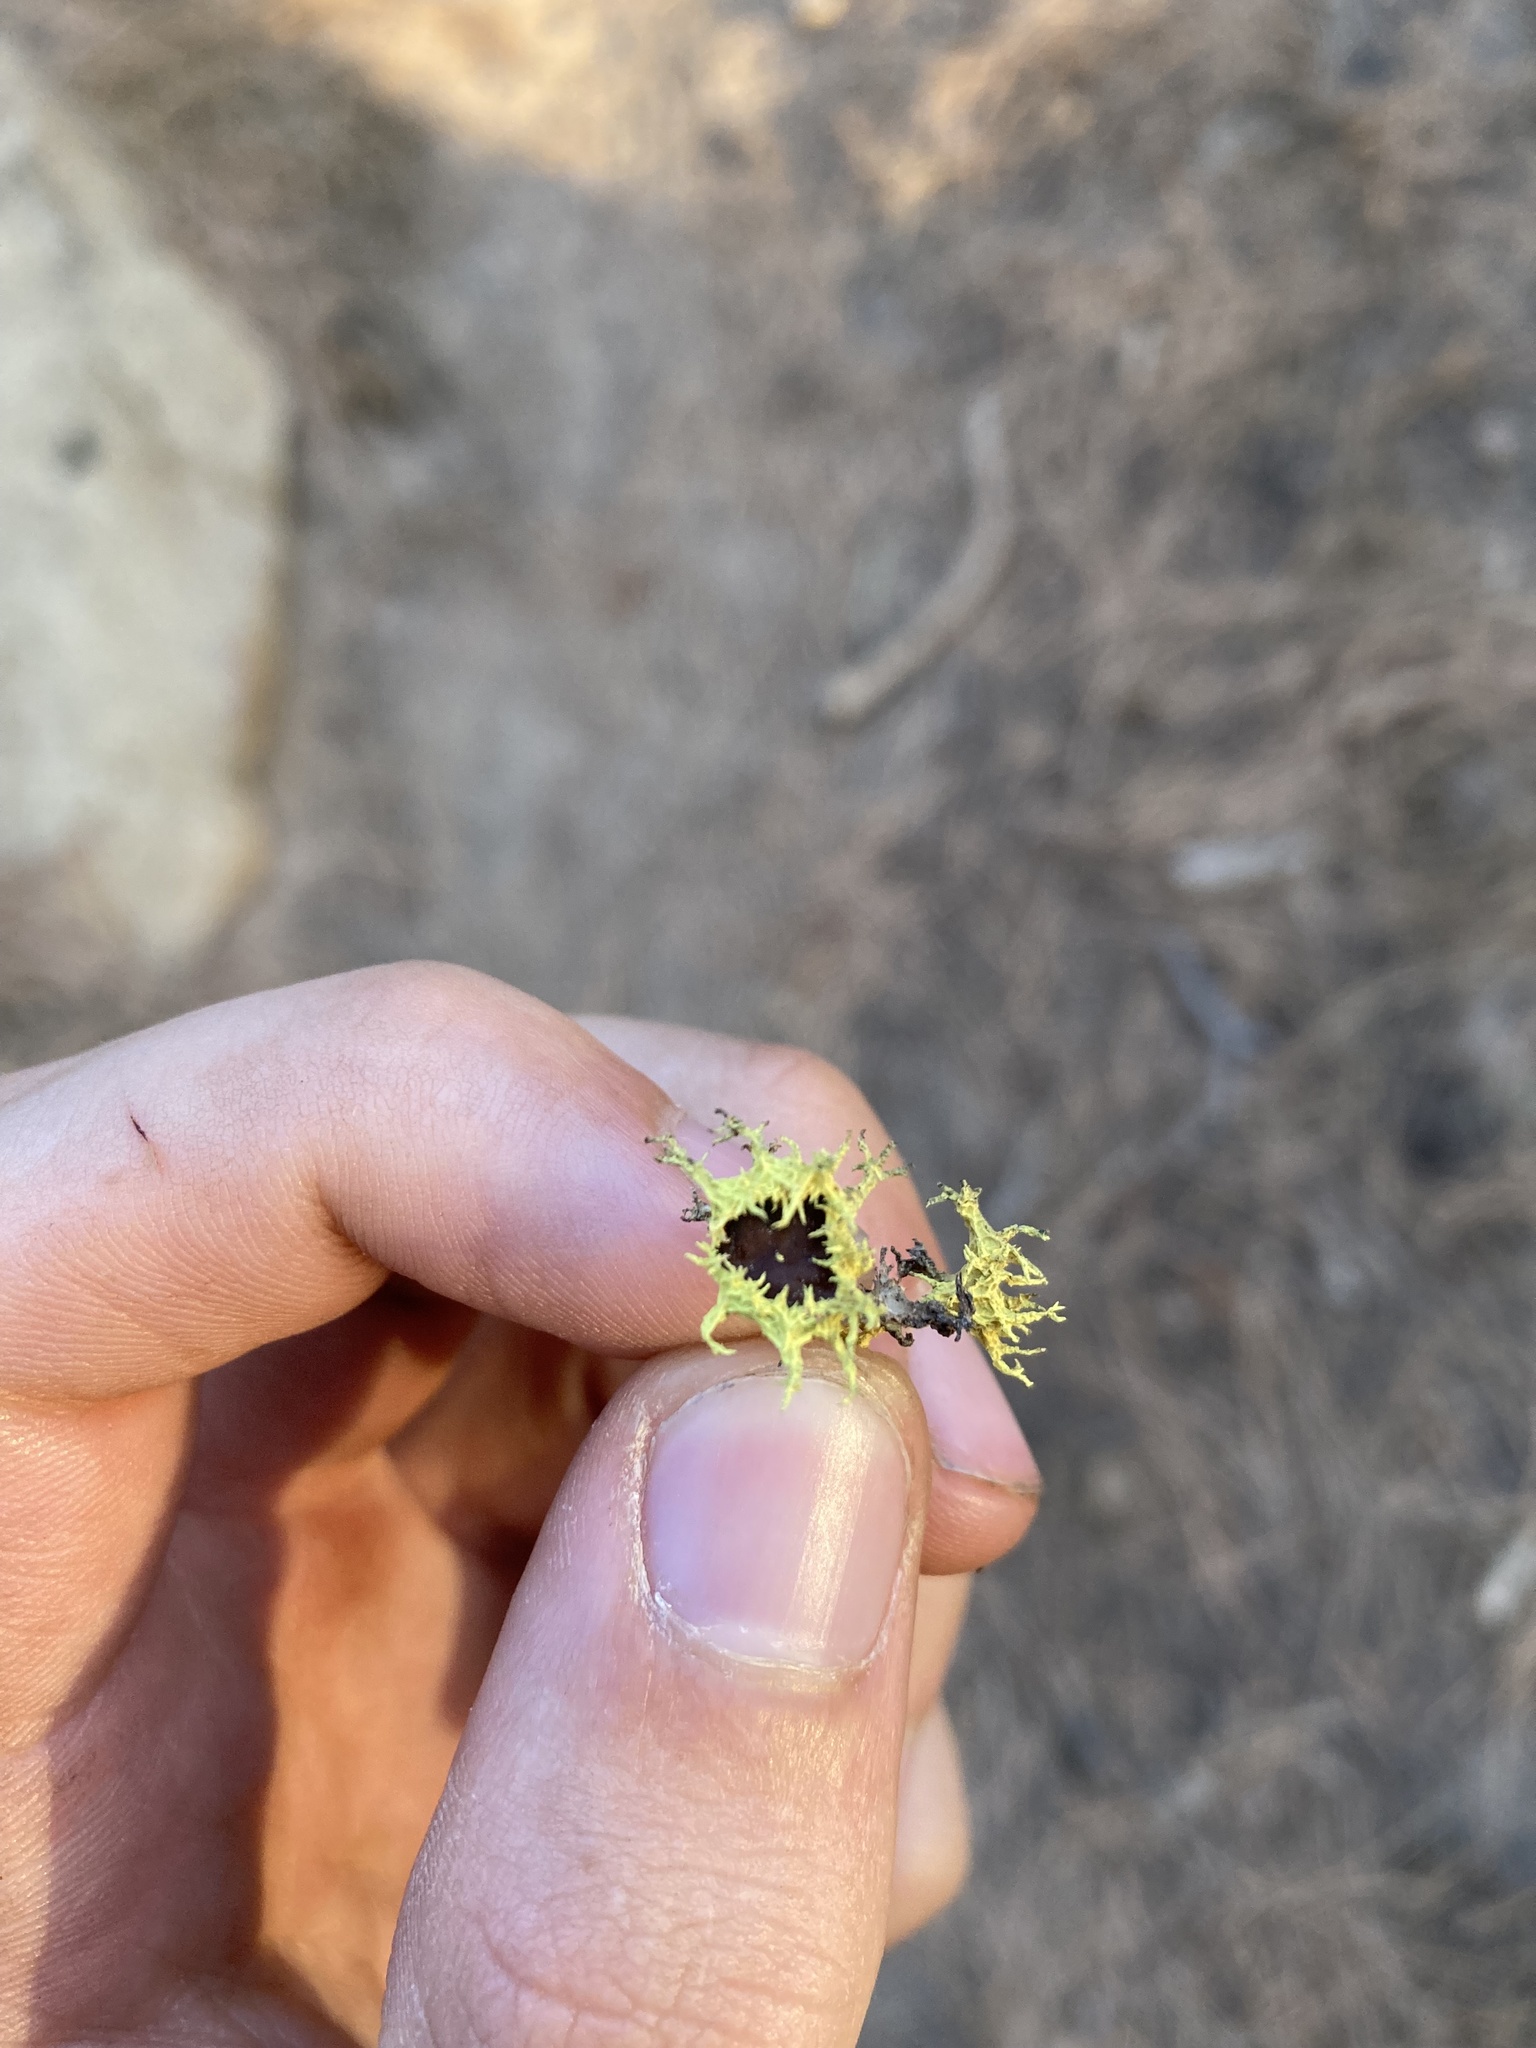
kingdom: Fungi
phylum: Ascomycota
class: Lecanoromycetes
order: Lecanorales
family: Parmeliaceae
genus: Letharia
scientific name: Letharia columbiana
